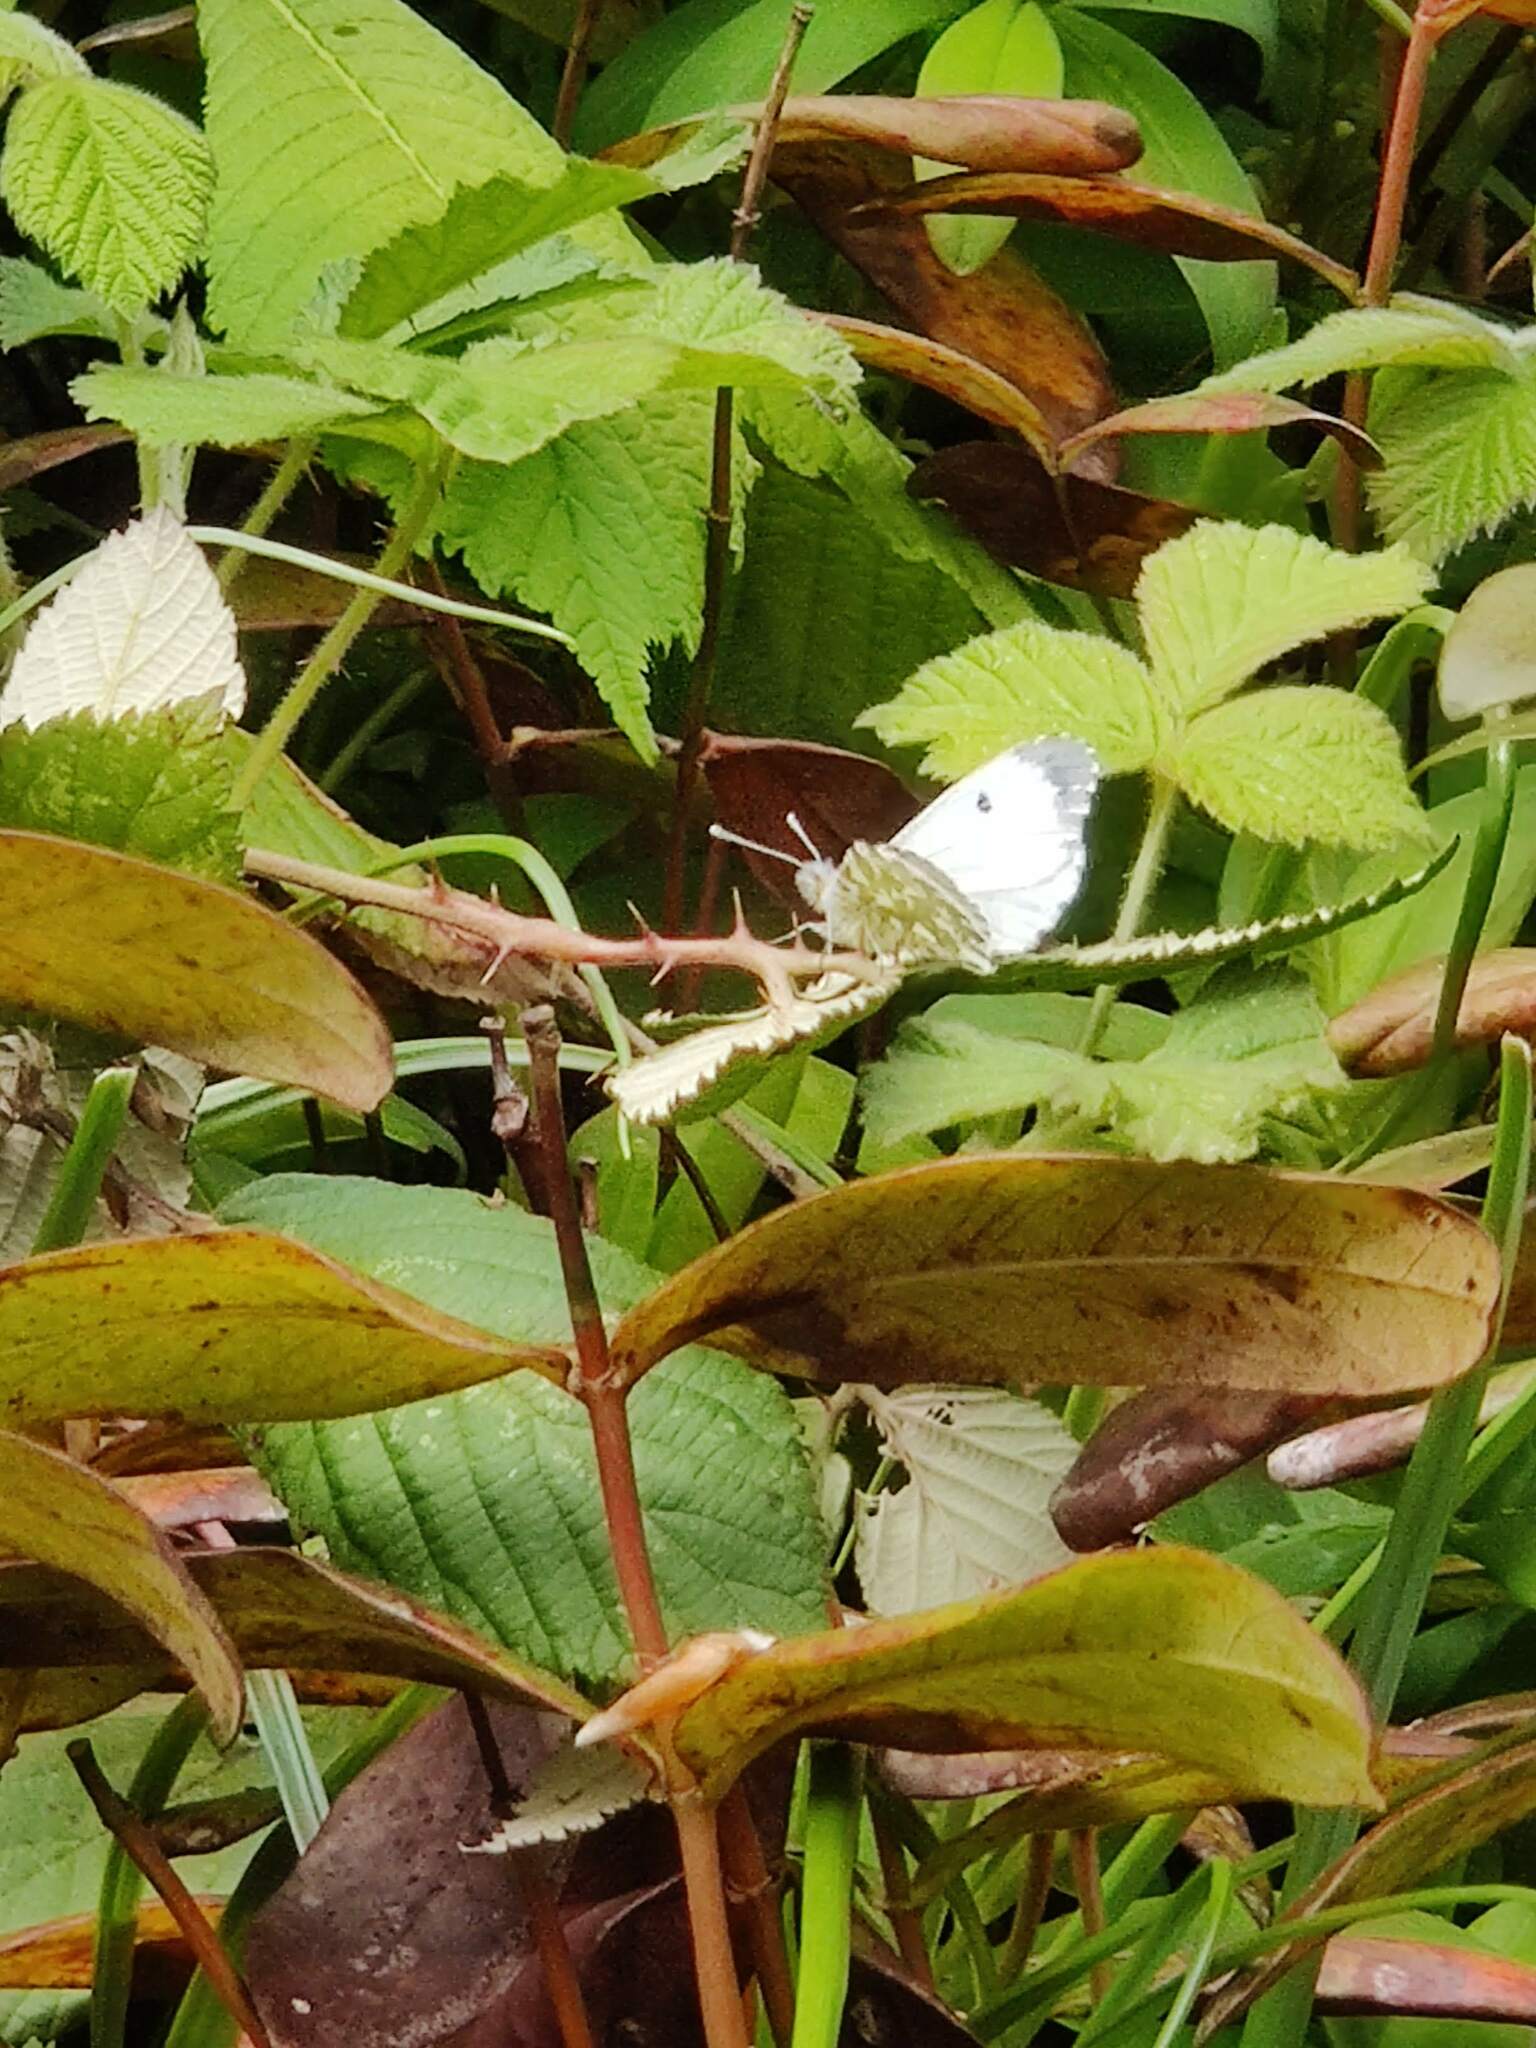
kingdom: Animalia
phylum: Arthropoda
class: Insecta
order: Lepidoptera
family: Pieridae
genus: Anthocharis
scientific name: Anthocharis cardamines
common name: Orange-tip
